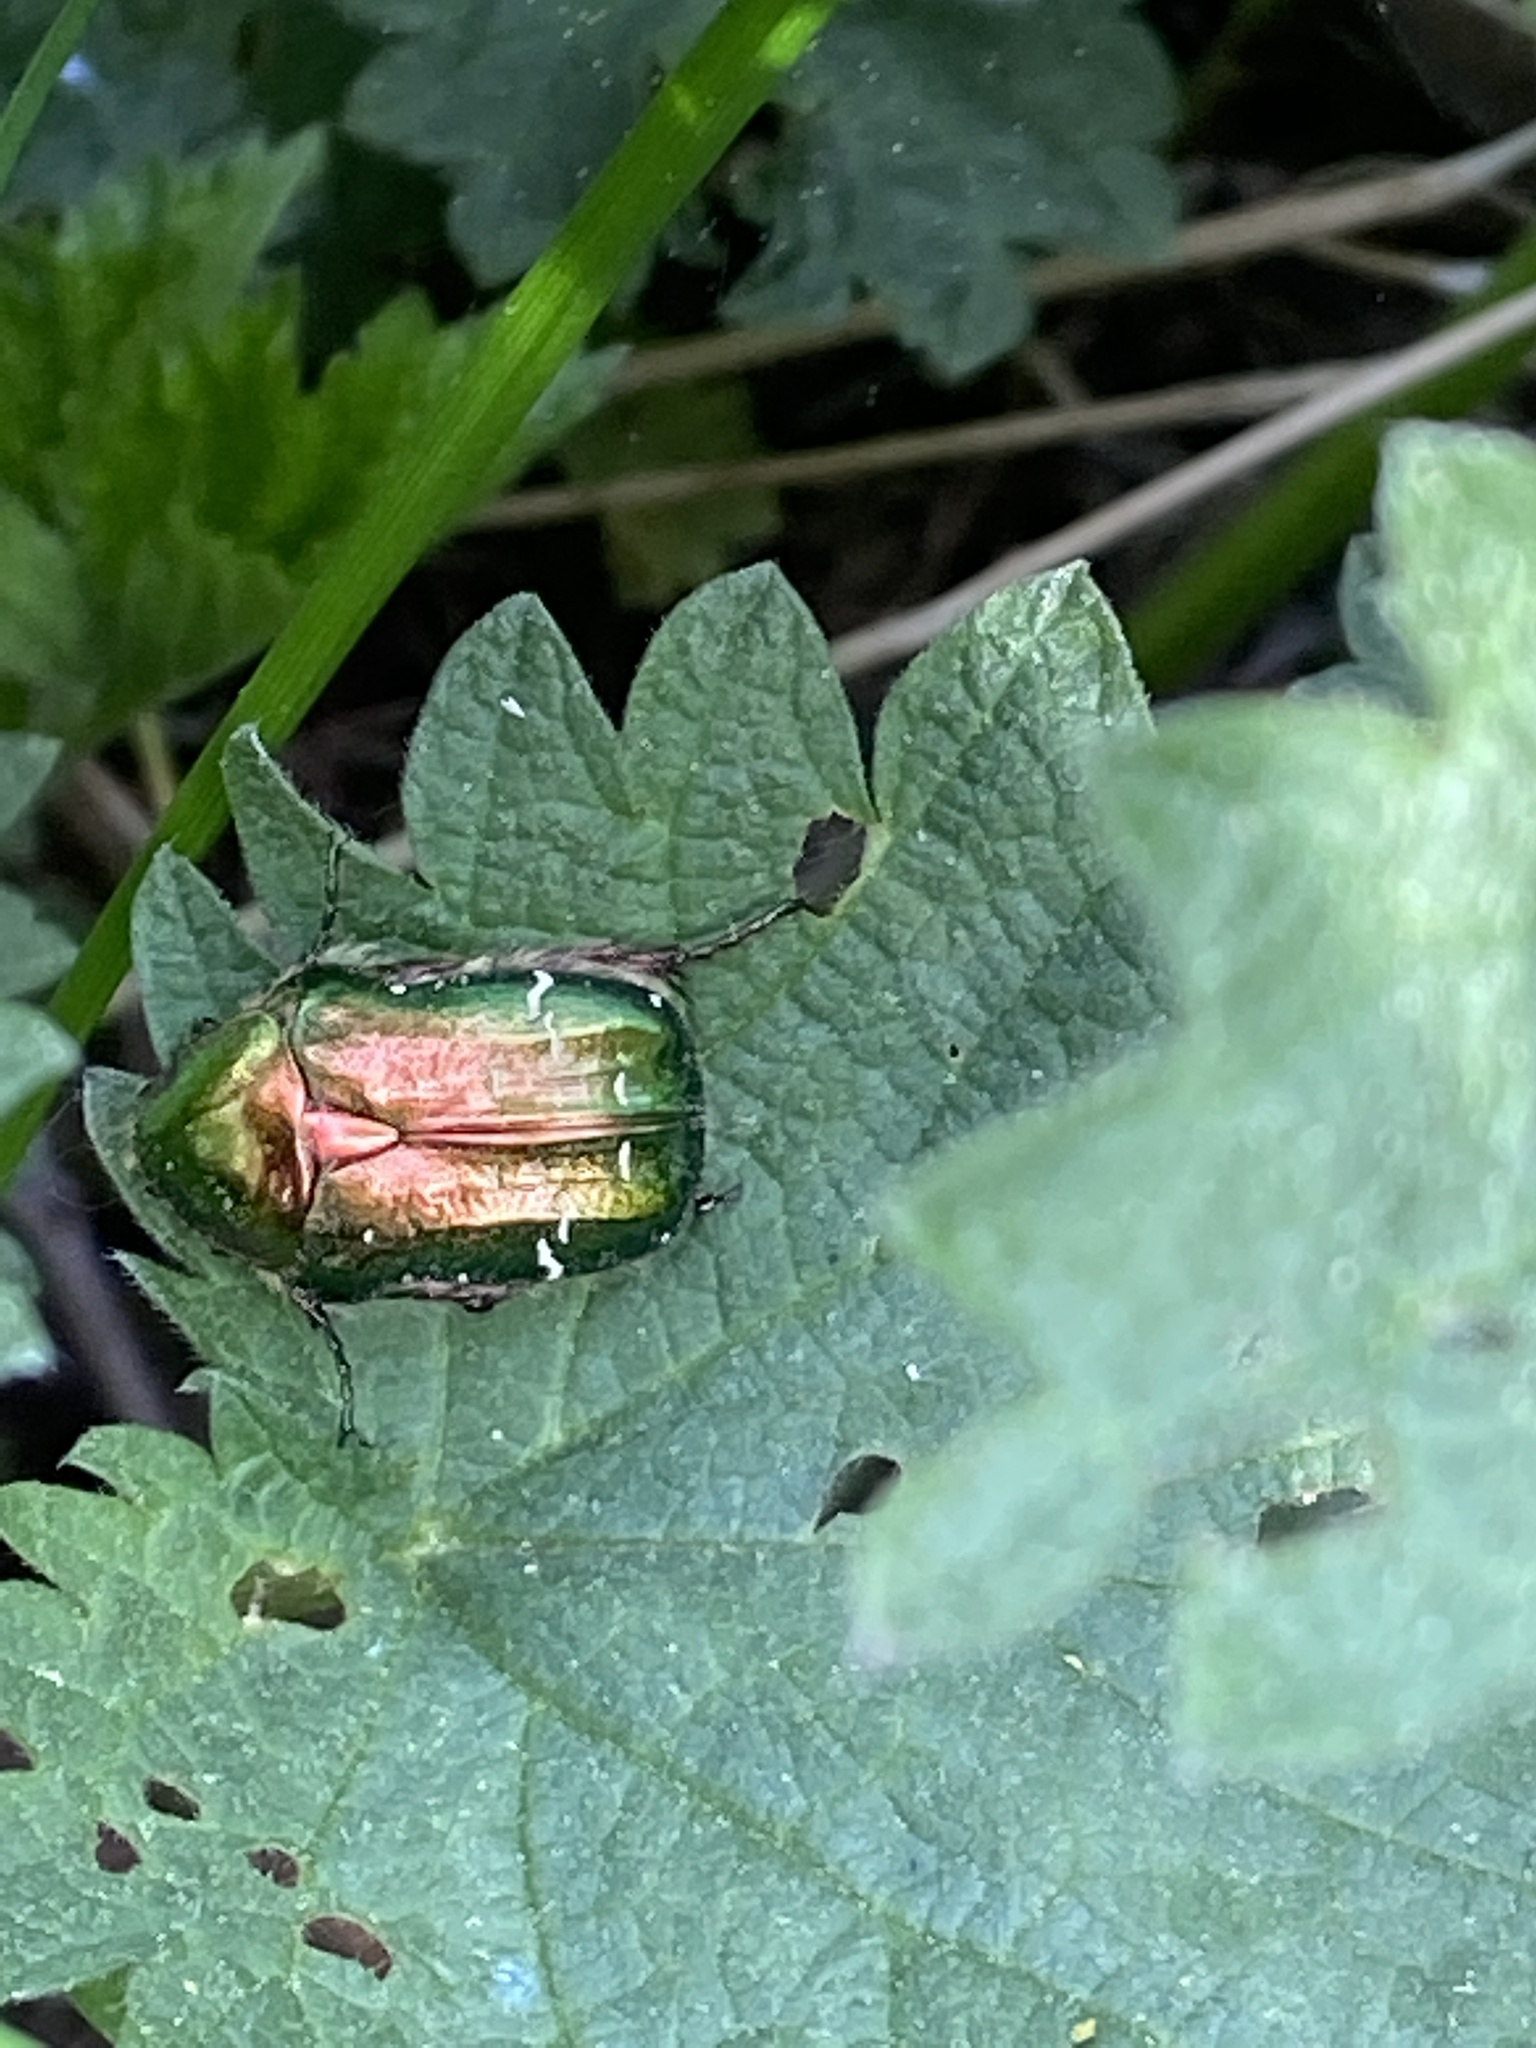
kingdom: Animalia
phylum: Arthropoda
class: Insecta
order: Coleoptera
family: Scarabaeidae
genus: Cetonia
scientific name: Cetonia aurata
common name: Rose chafer
